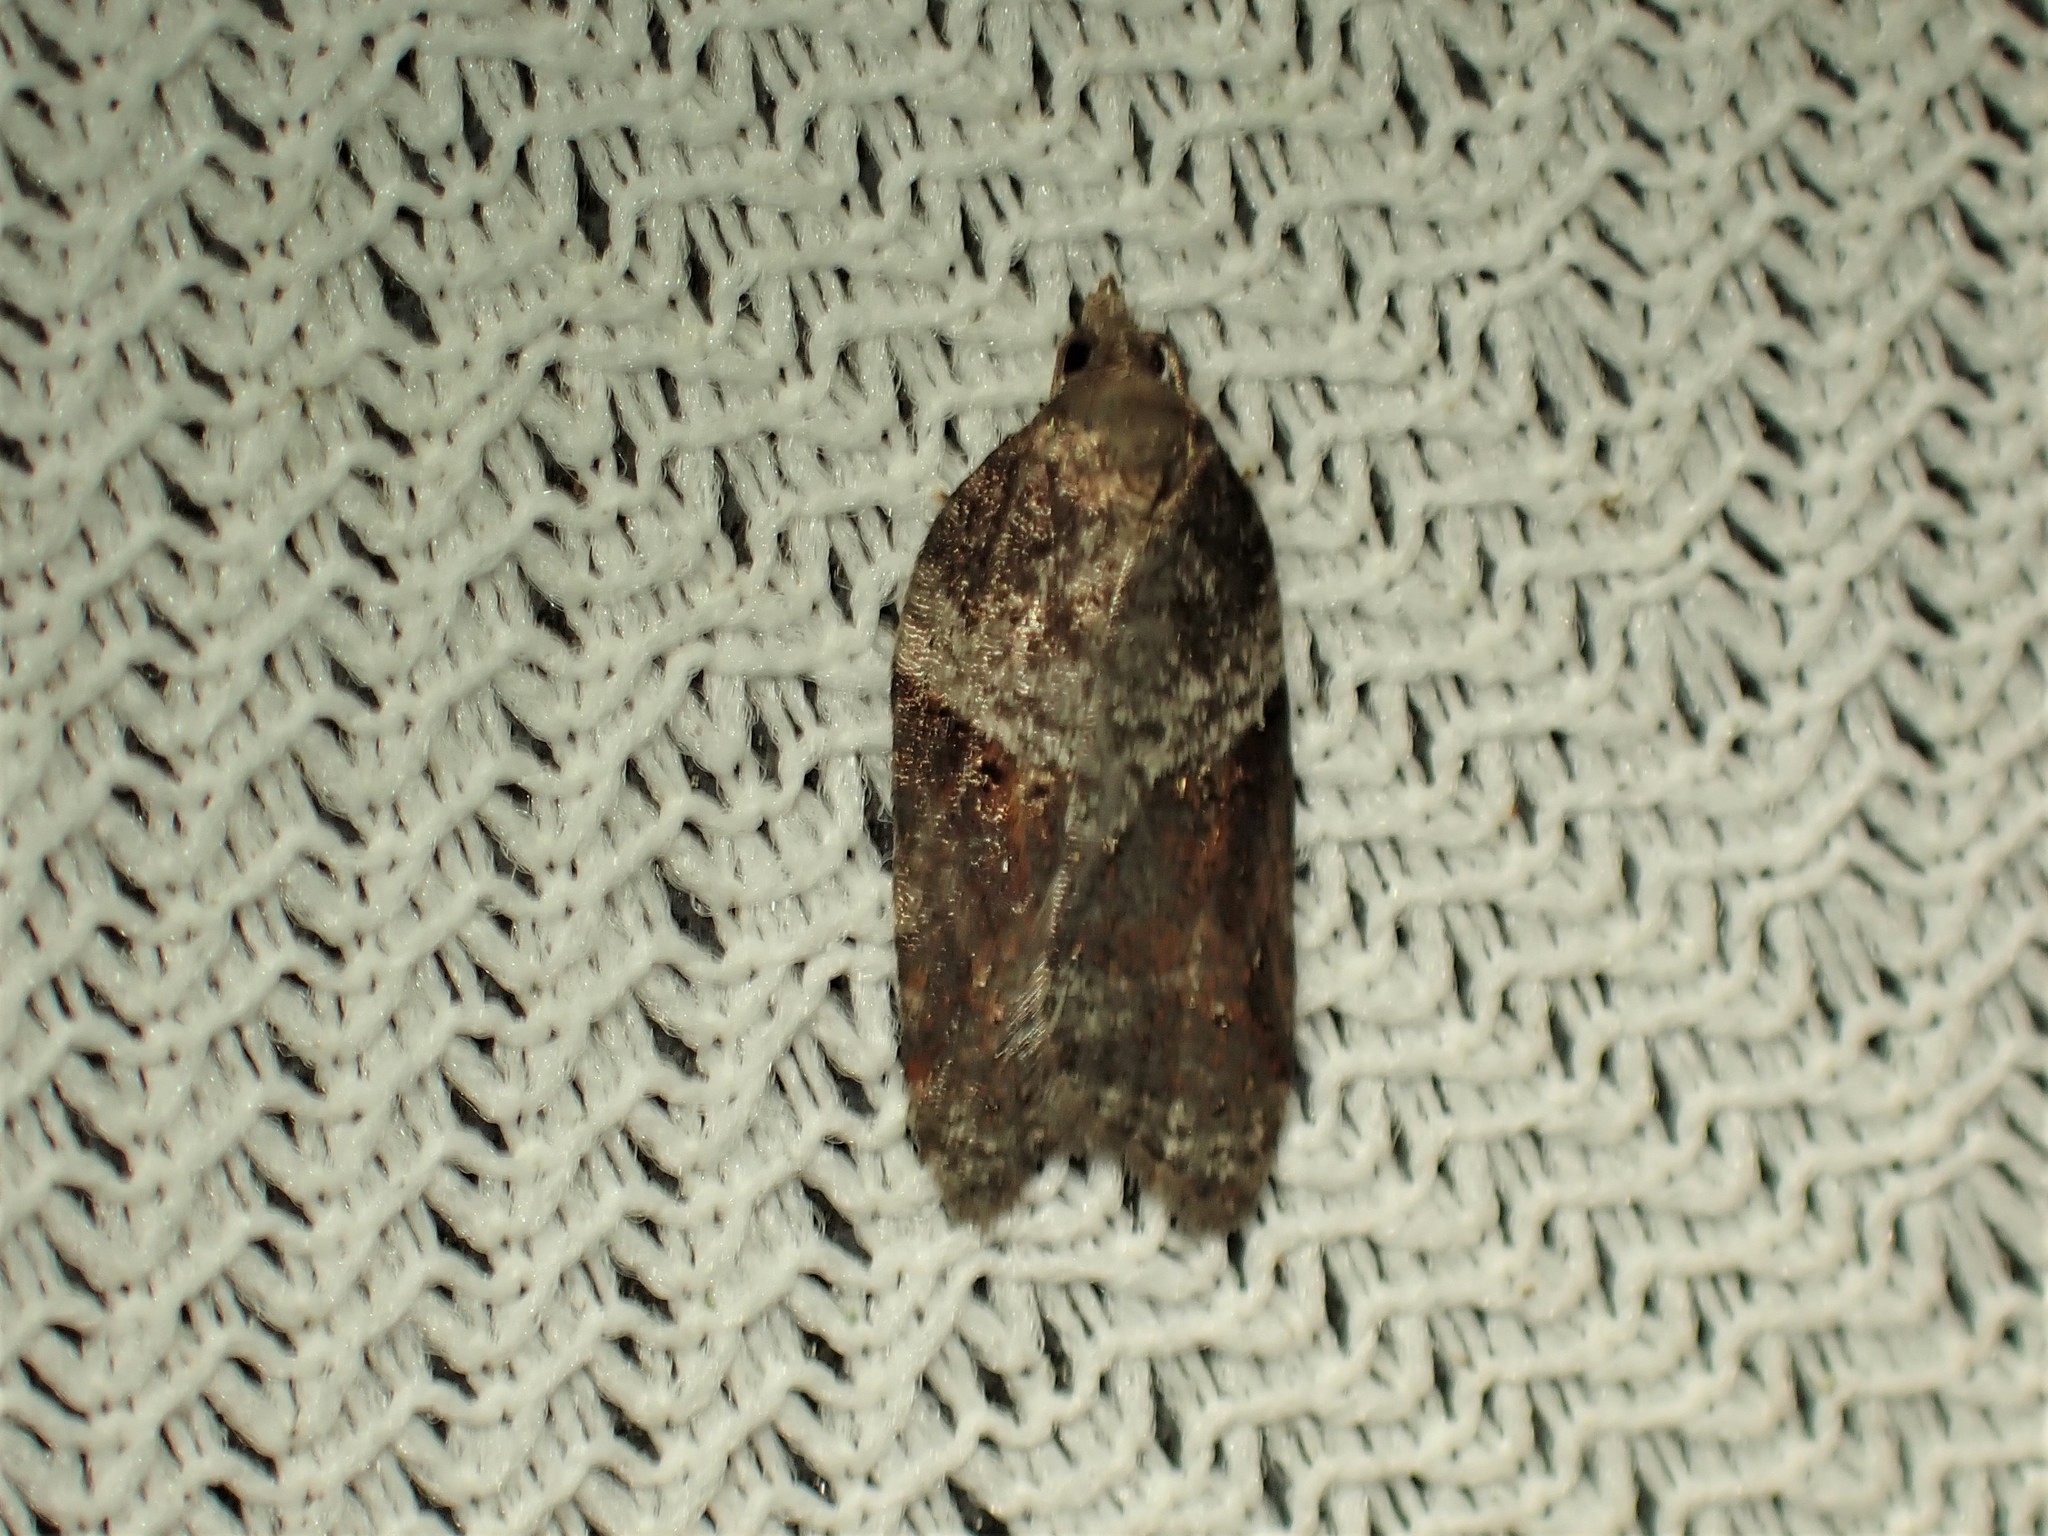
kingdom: Animalia
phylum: Arthropoda
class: Insecta
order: Lepidoptera
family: Tortricidae
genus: Acleris
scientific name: Acleris macdunnoughi
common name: Macdunnough's acleris
